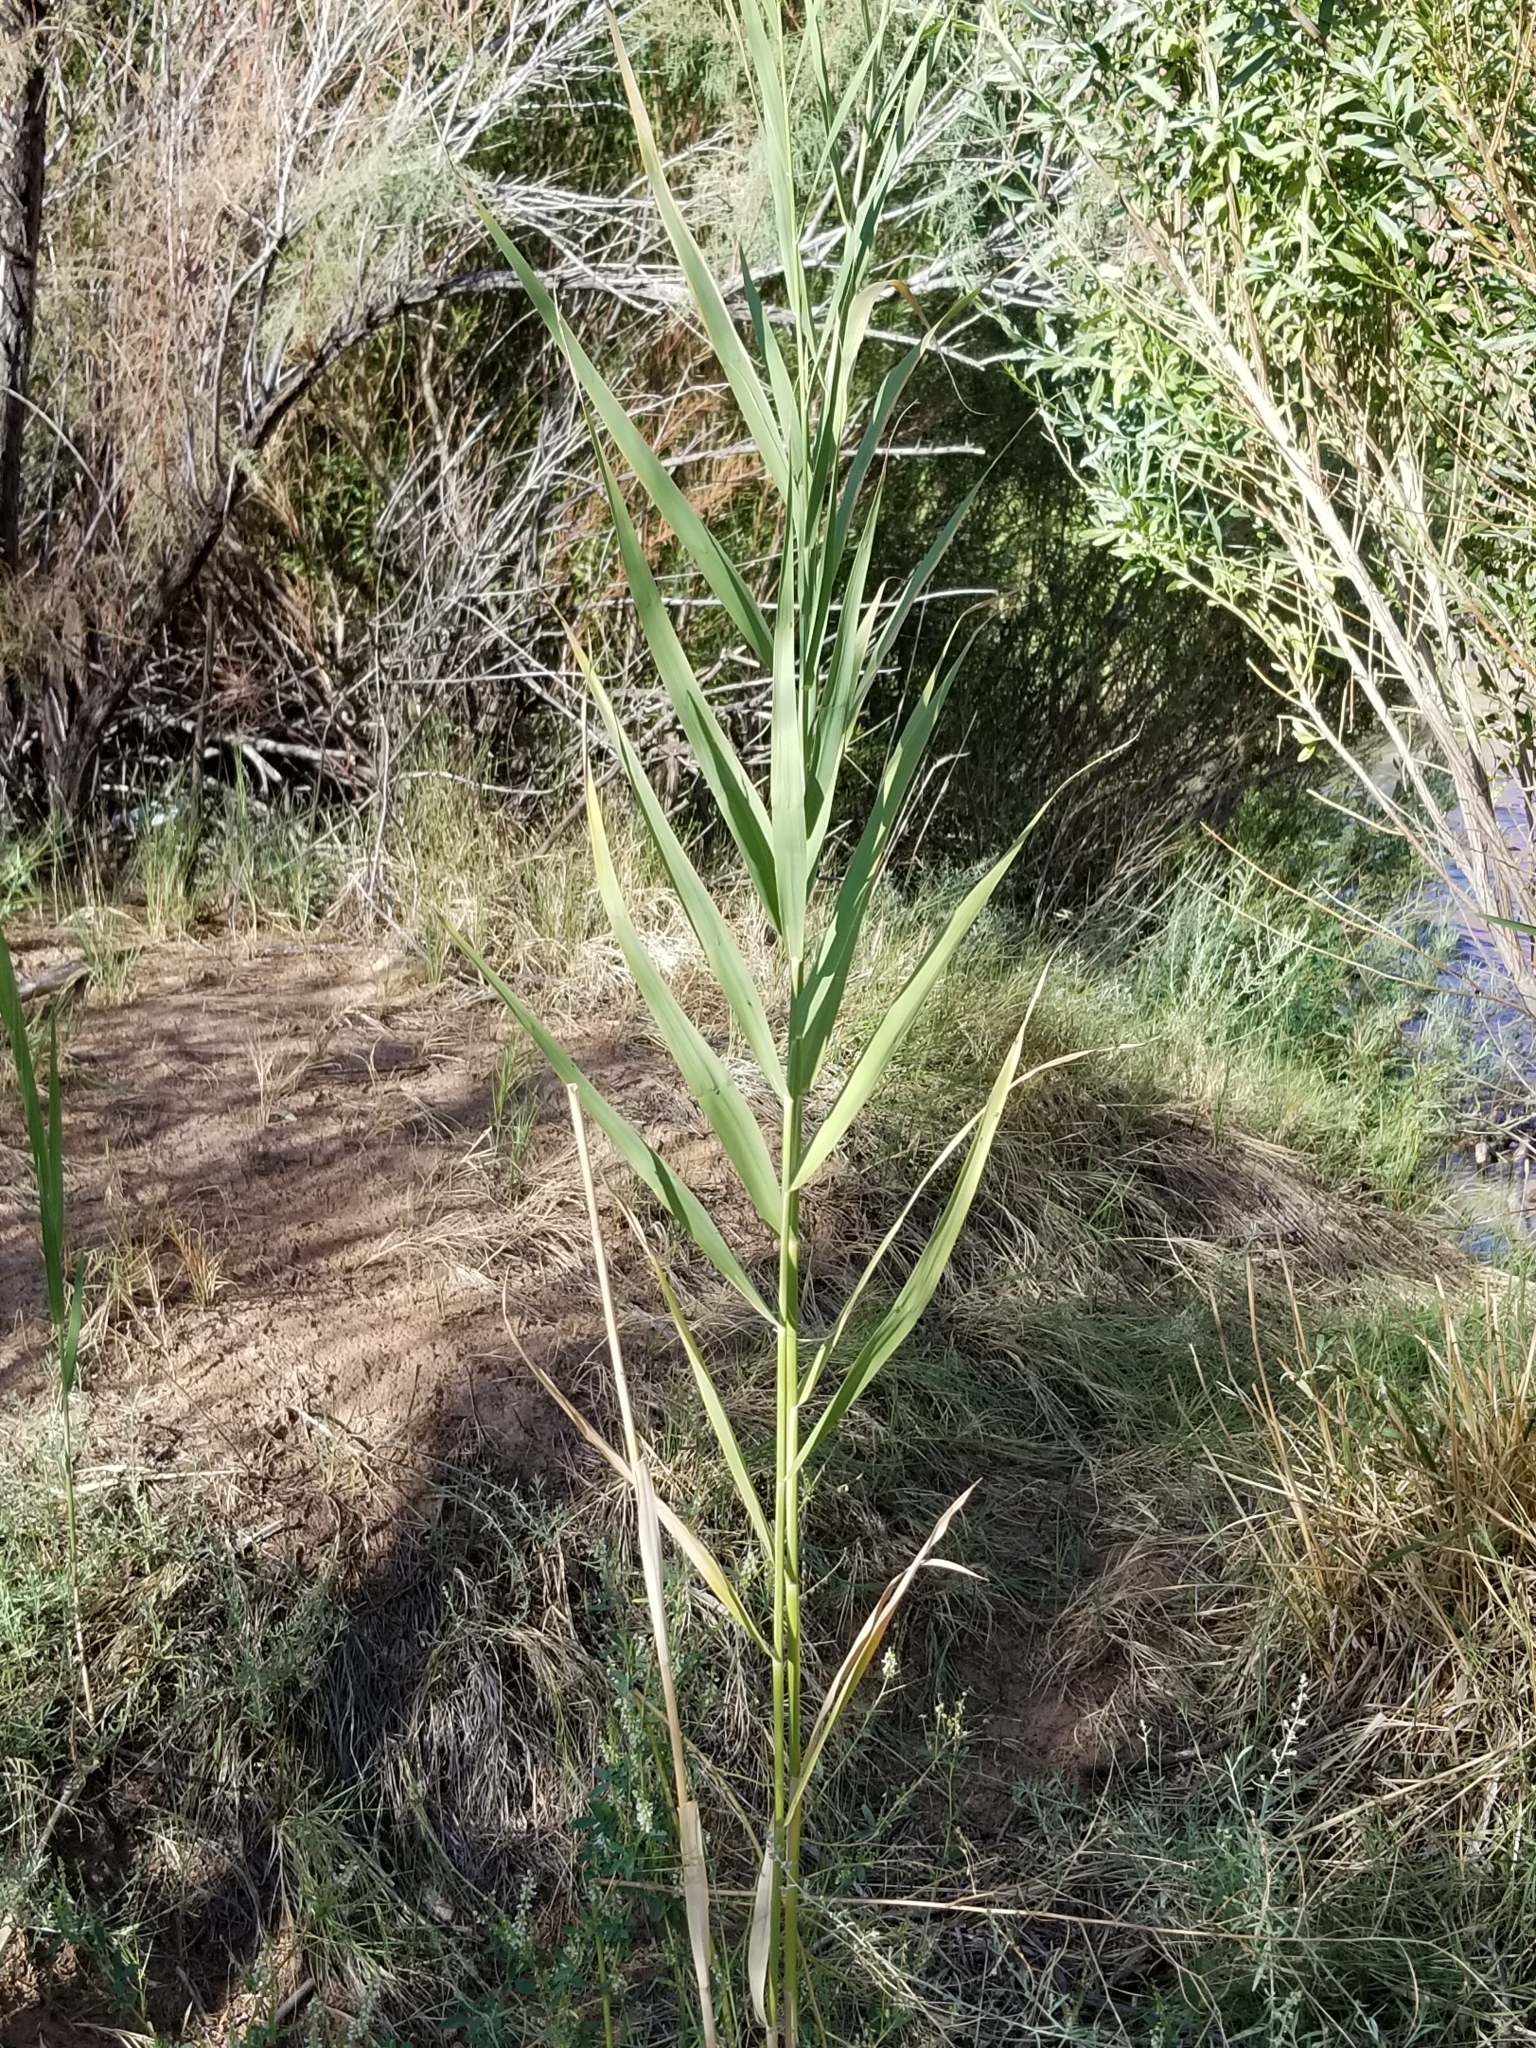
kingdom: Plantae
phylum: Tracheophyta
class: Liliopsida
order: Poales
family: Poaceae
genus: Bromus
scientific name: Bromus tectorum
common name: Cheatgrass
